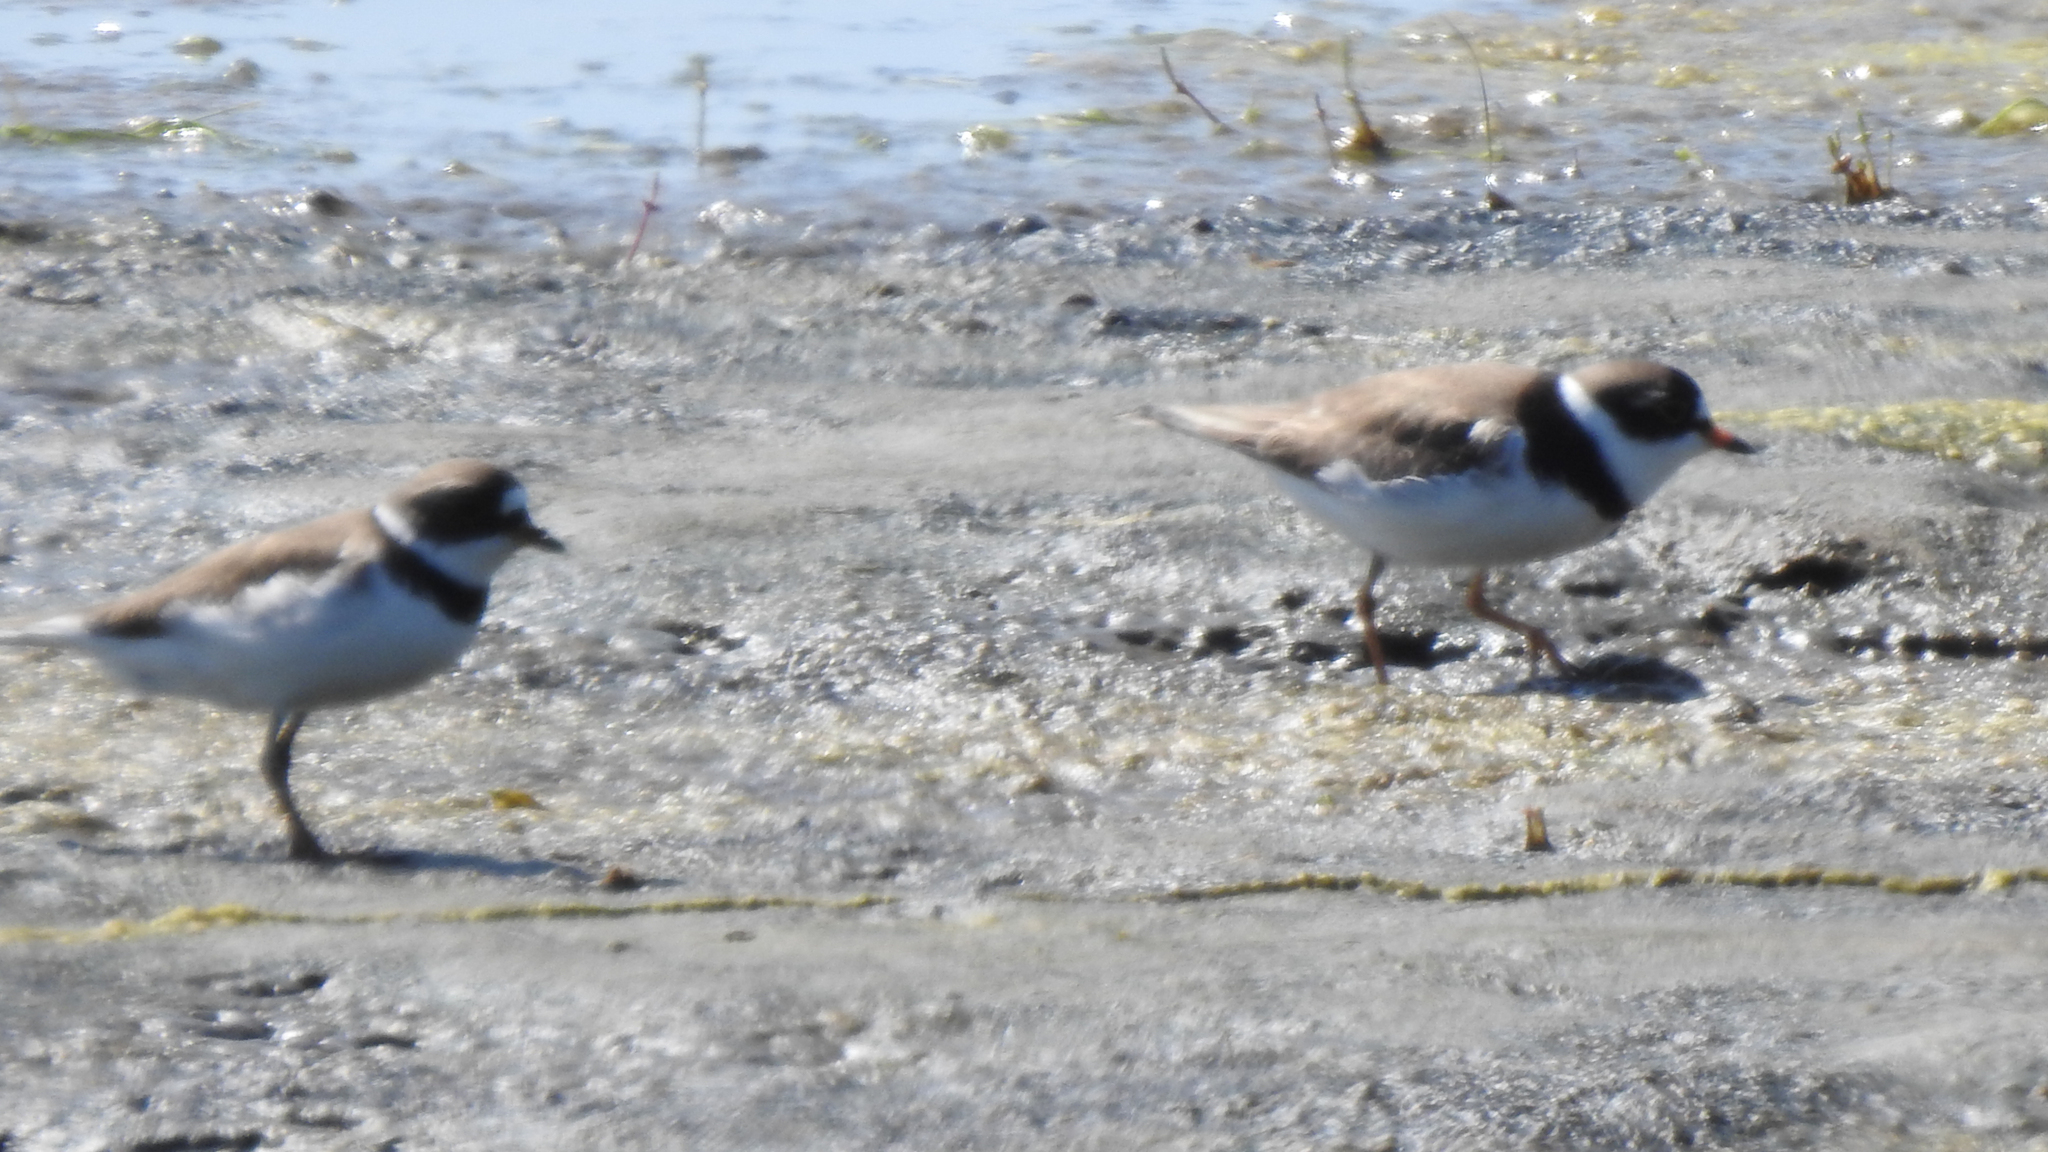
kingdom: Animalia
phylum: Chordata
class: Aves
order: Charadriiformes
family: Charadriidae
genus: Charadrius
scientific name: Charadrius semipalmatus
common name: Semipalmated plover
